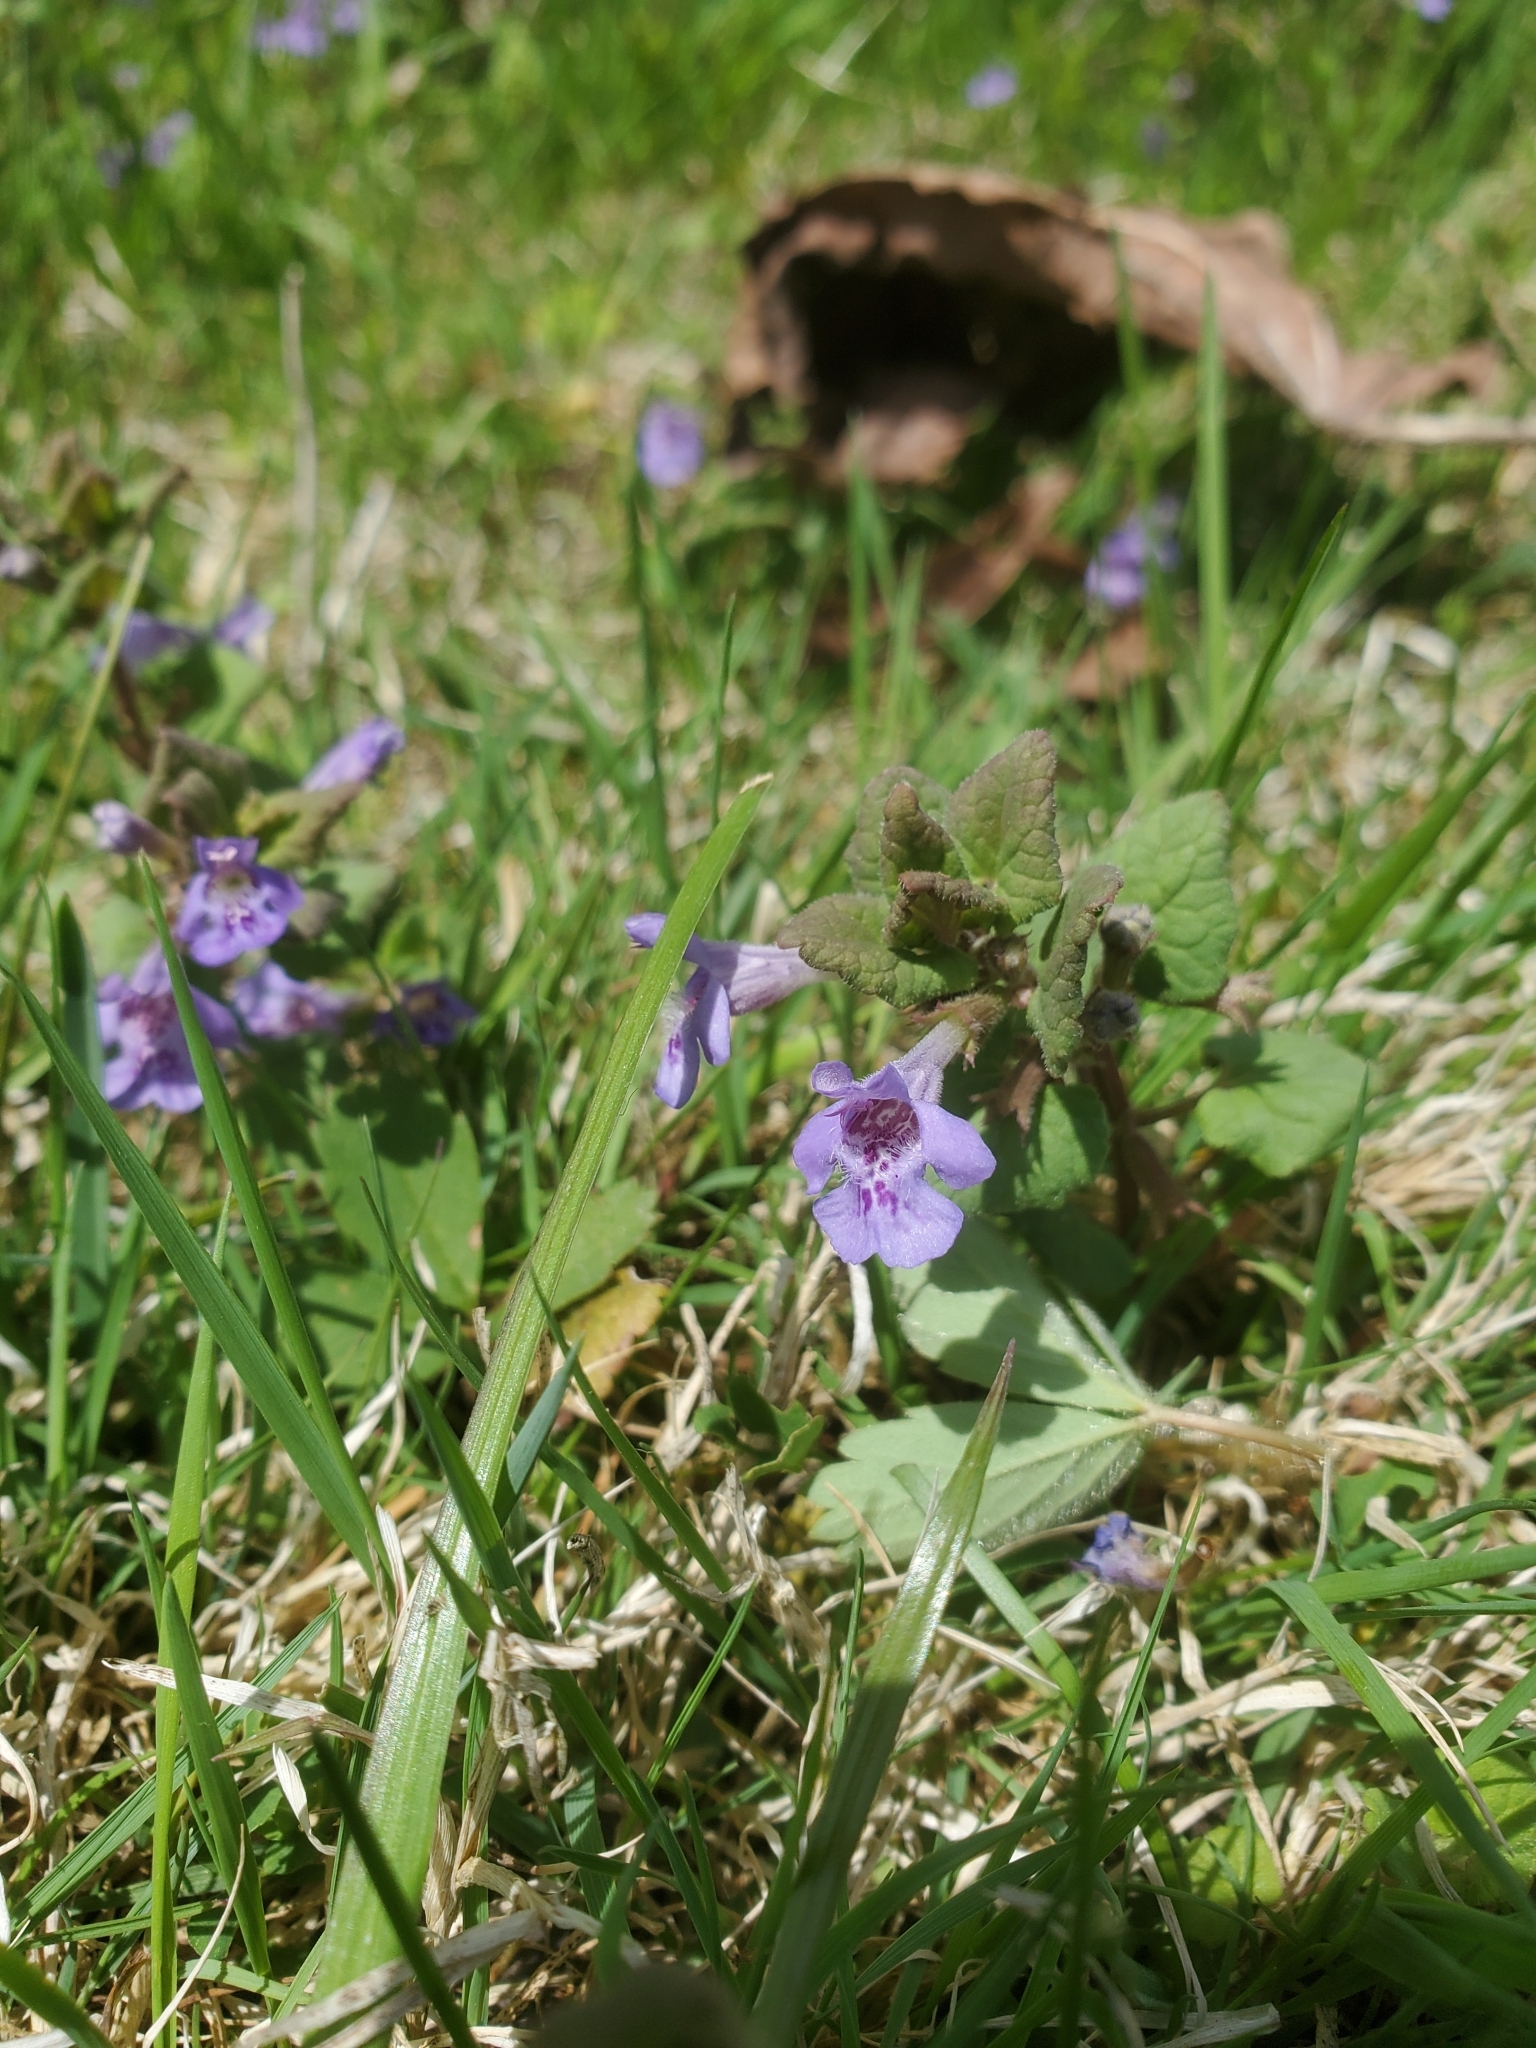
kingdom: Plantae
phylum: Tracheophyta
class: Magnoliopsida
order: Lamiales
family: Lamiaceae
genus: Glechoma
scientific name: Glechoma hederacea
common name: Ground ivy
